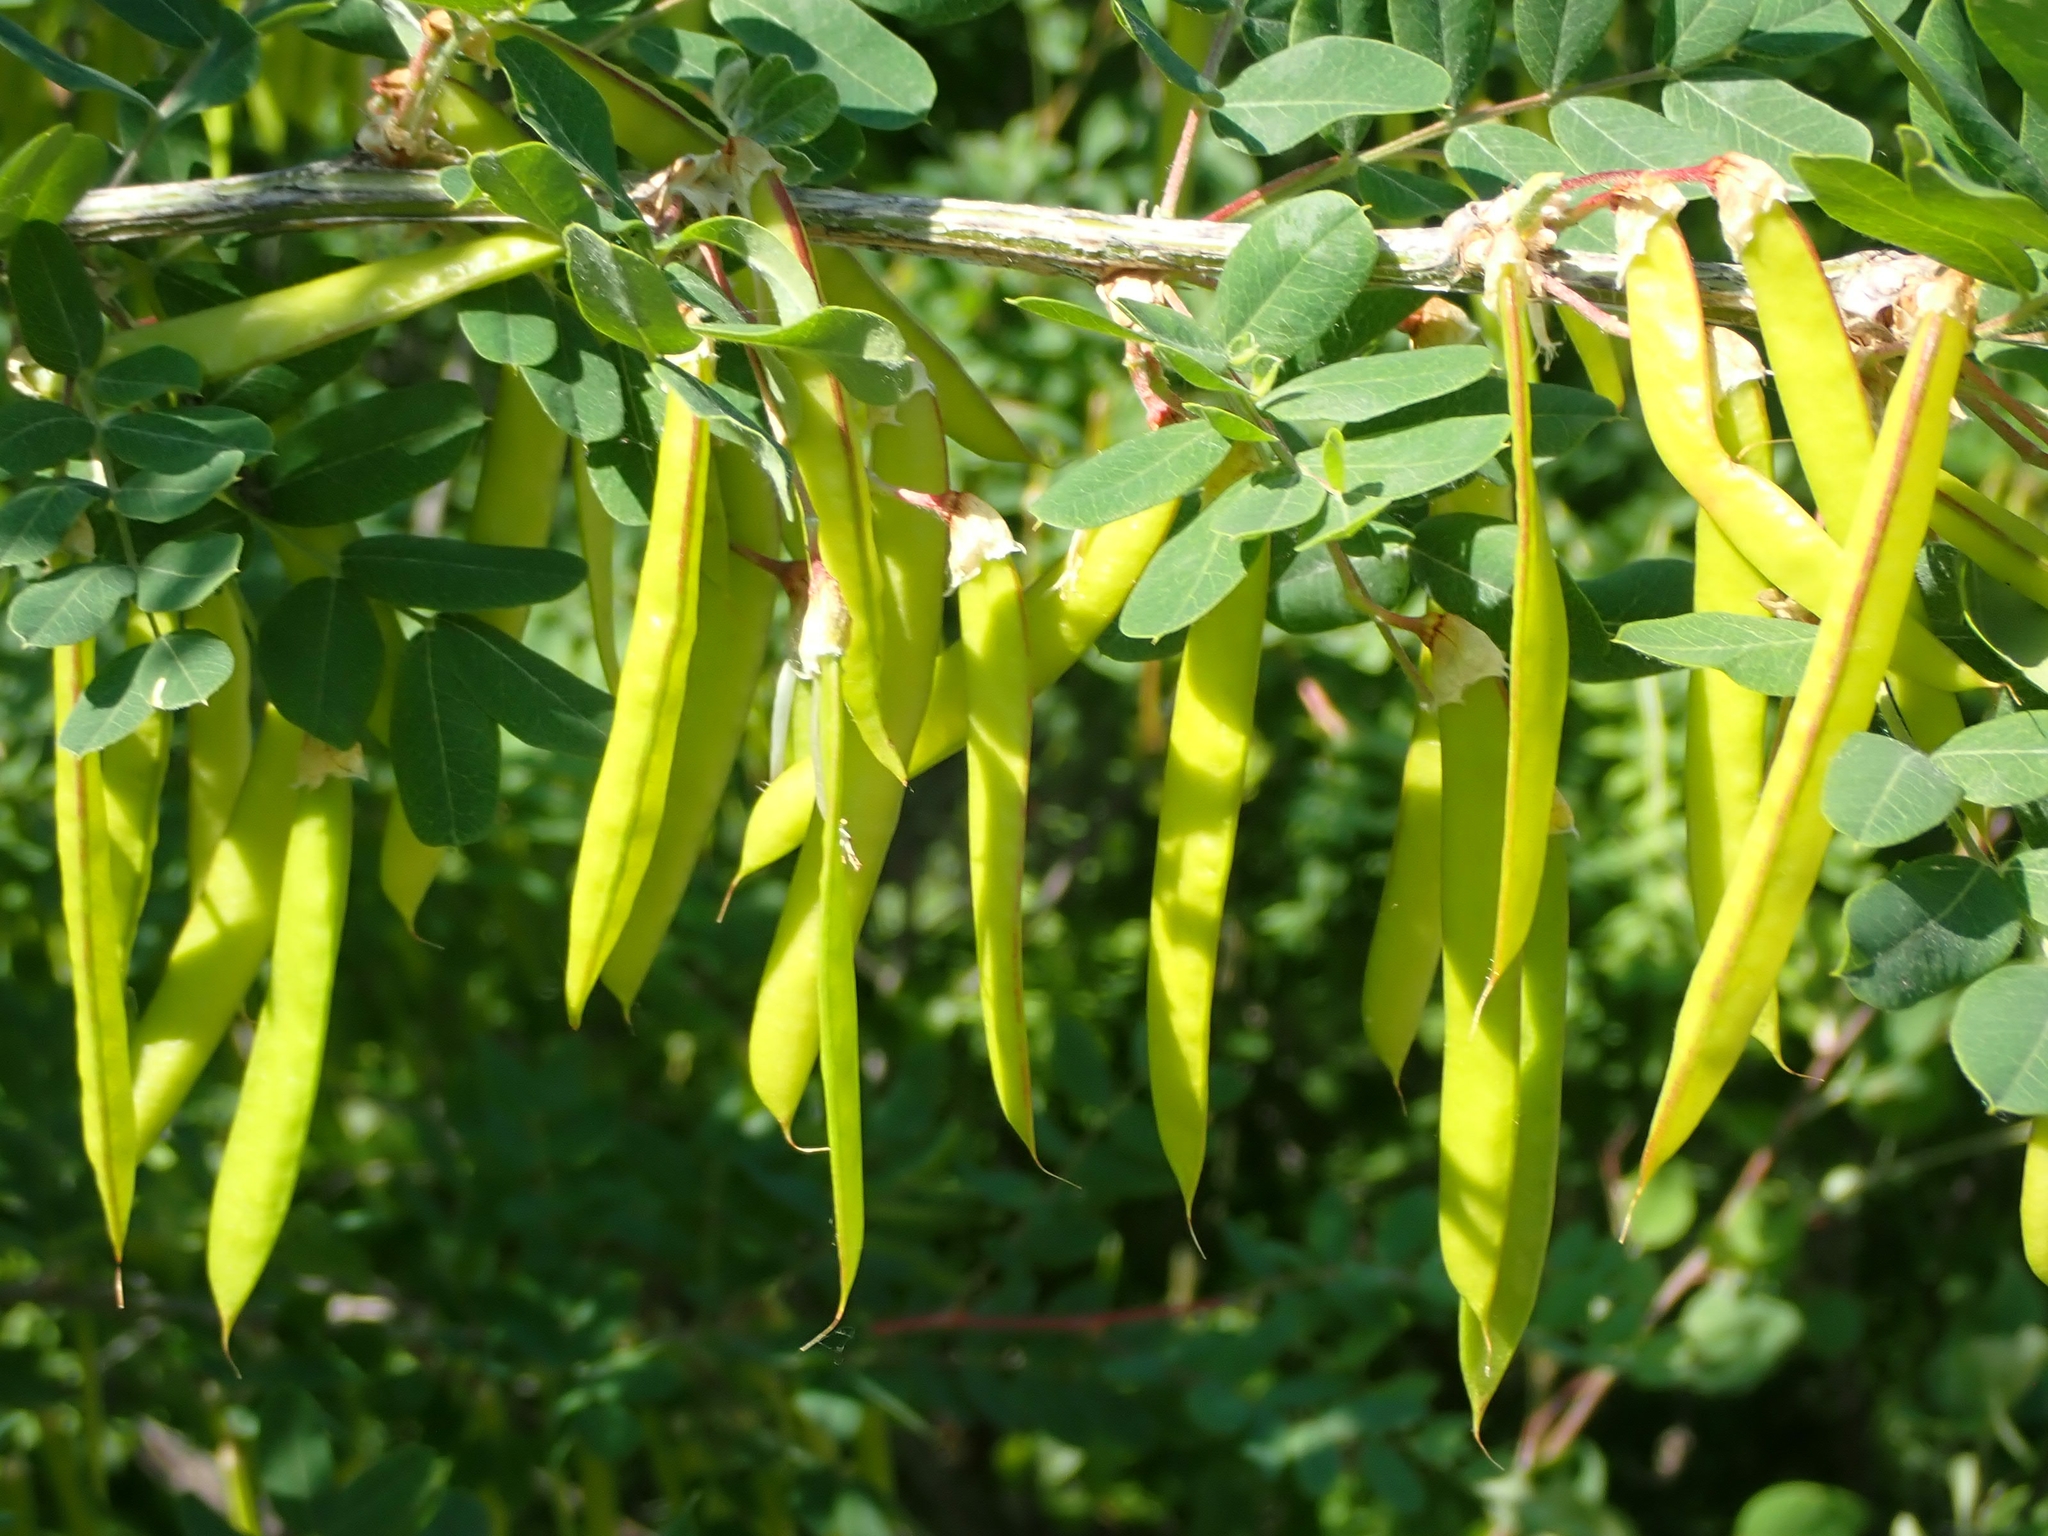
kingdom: Plantae
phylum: Tracheophyta
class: Magnoliopsida
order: Fabales
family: Fabaceae
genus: Caragana
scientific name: Caragana arborescens
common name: Siberian peashrub
